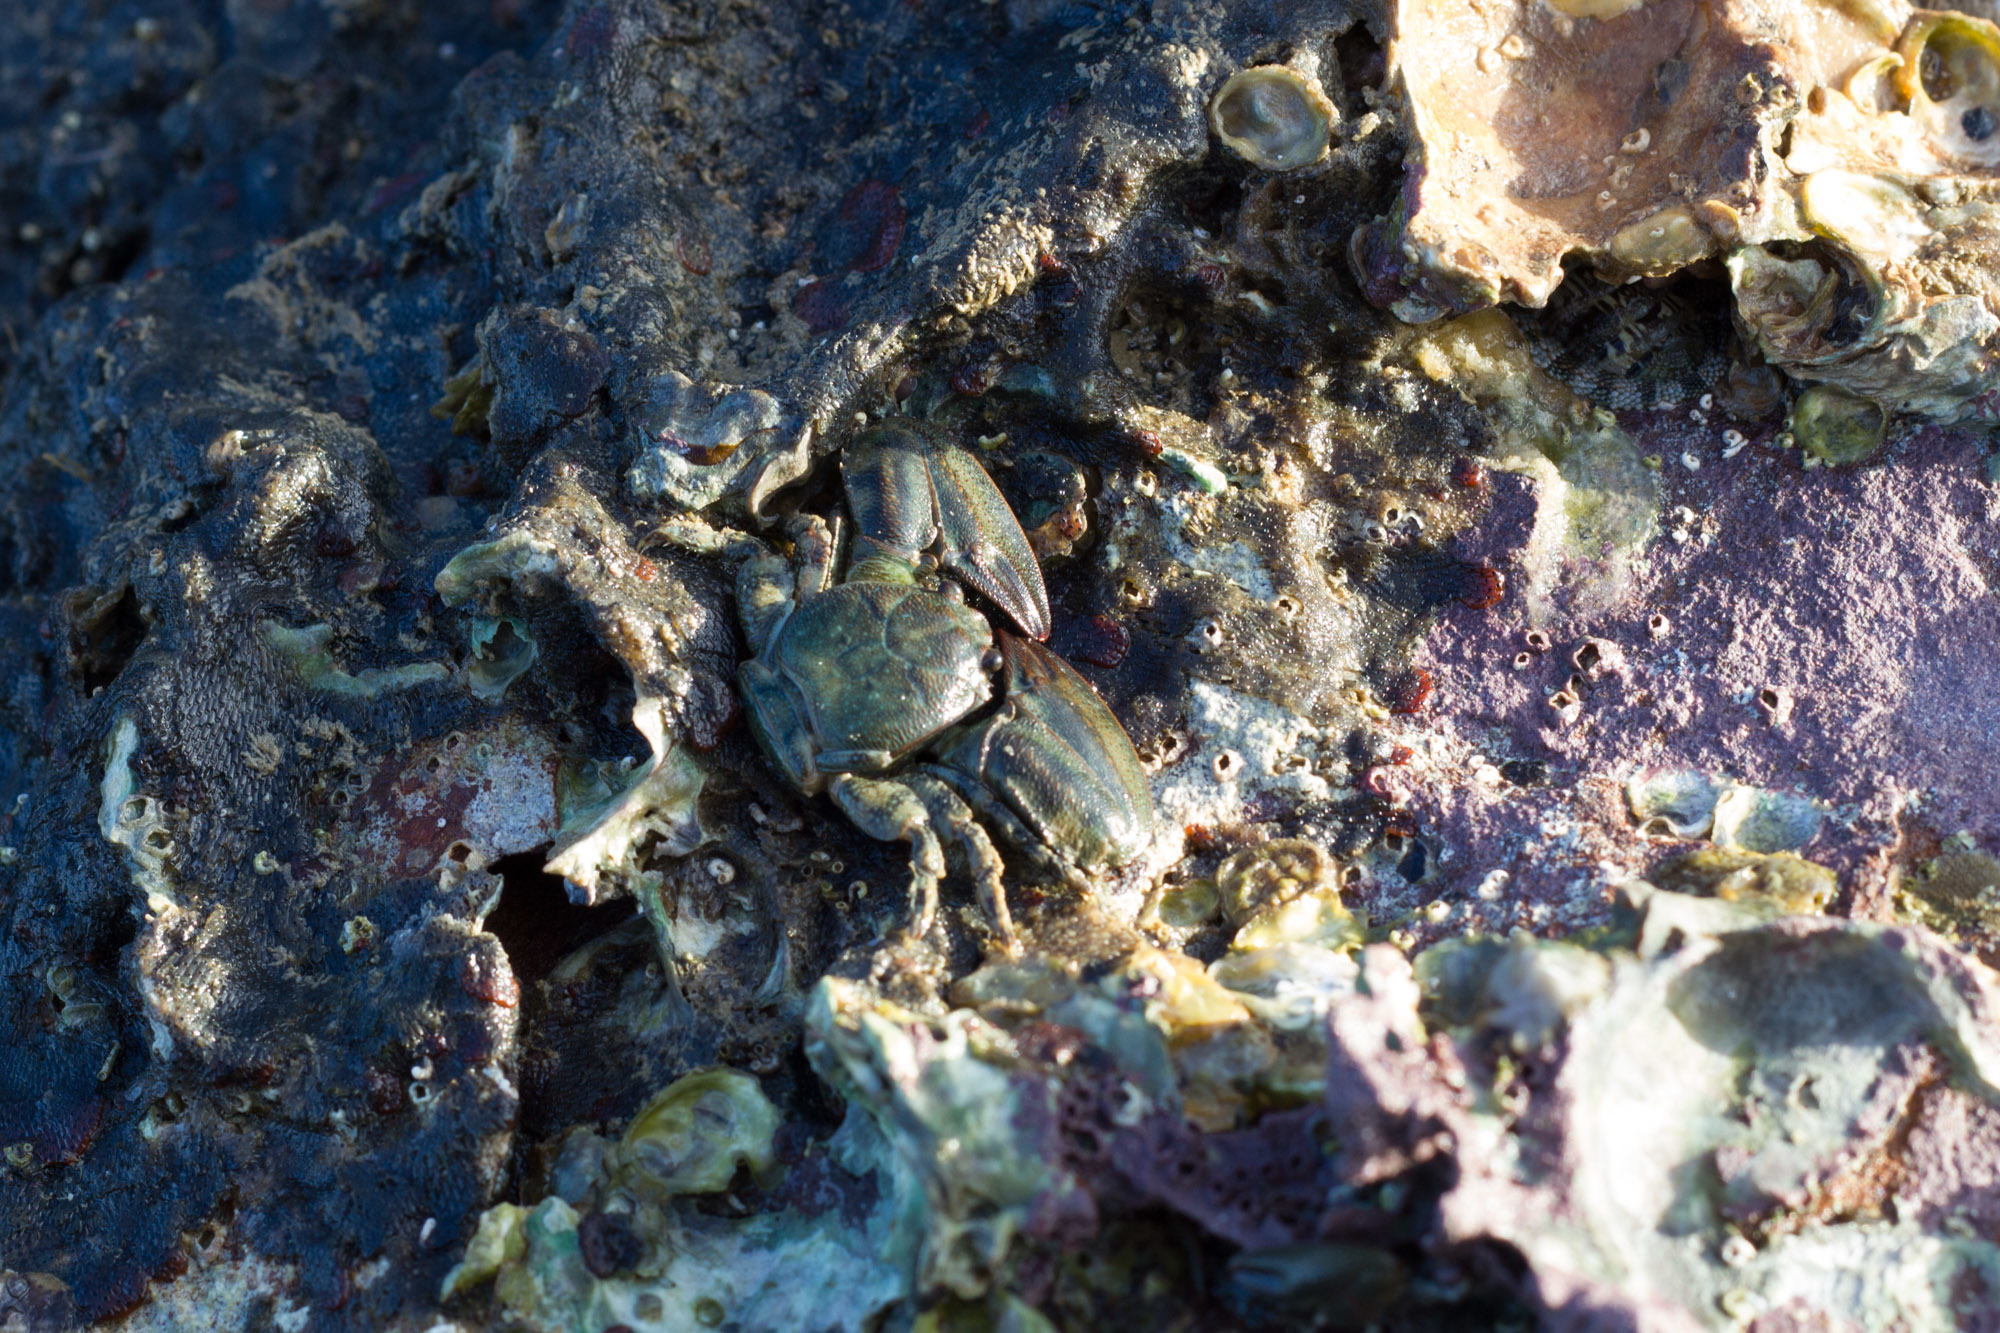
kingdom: Animalia
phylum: Arthropoda
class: Malacostraca
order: Decapoda
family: Porcellanidae
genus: Petrolisthes
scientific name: Petrolisthes elongatus
